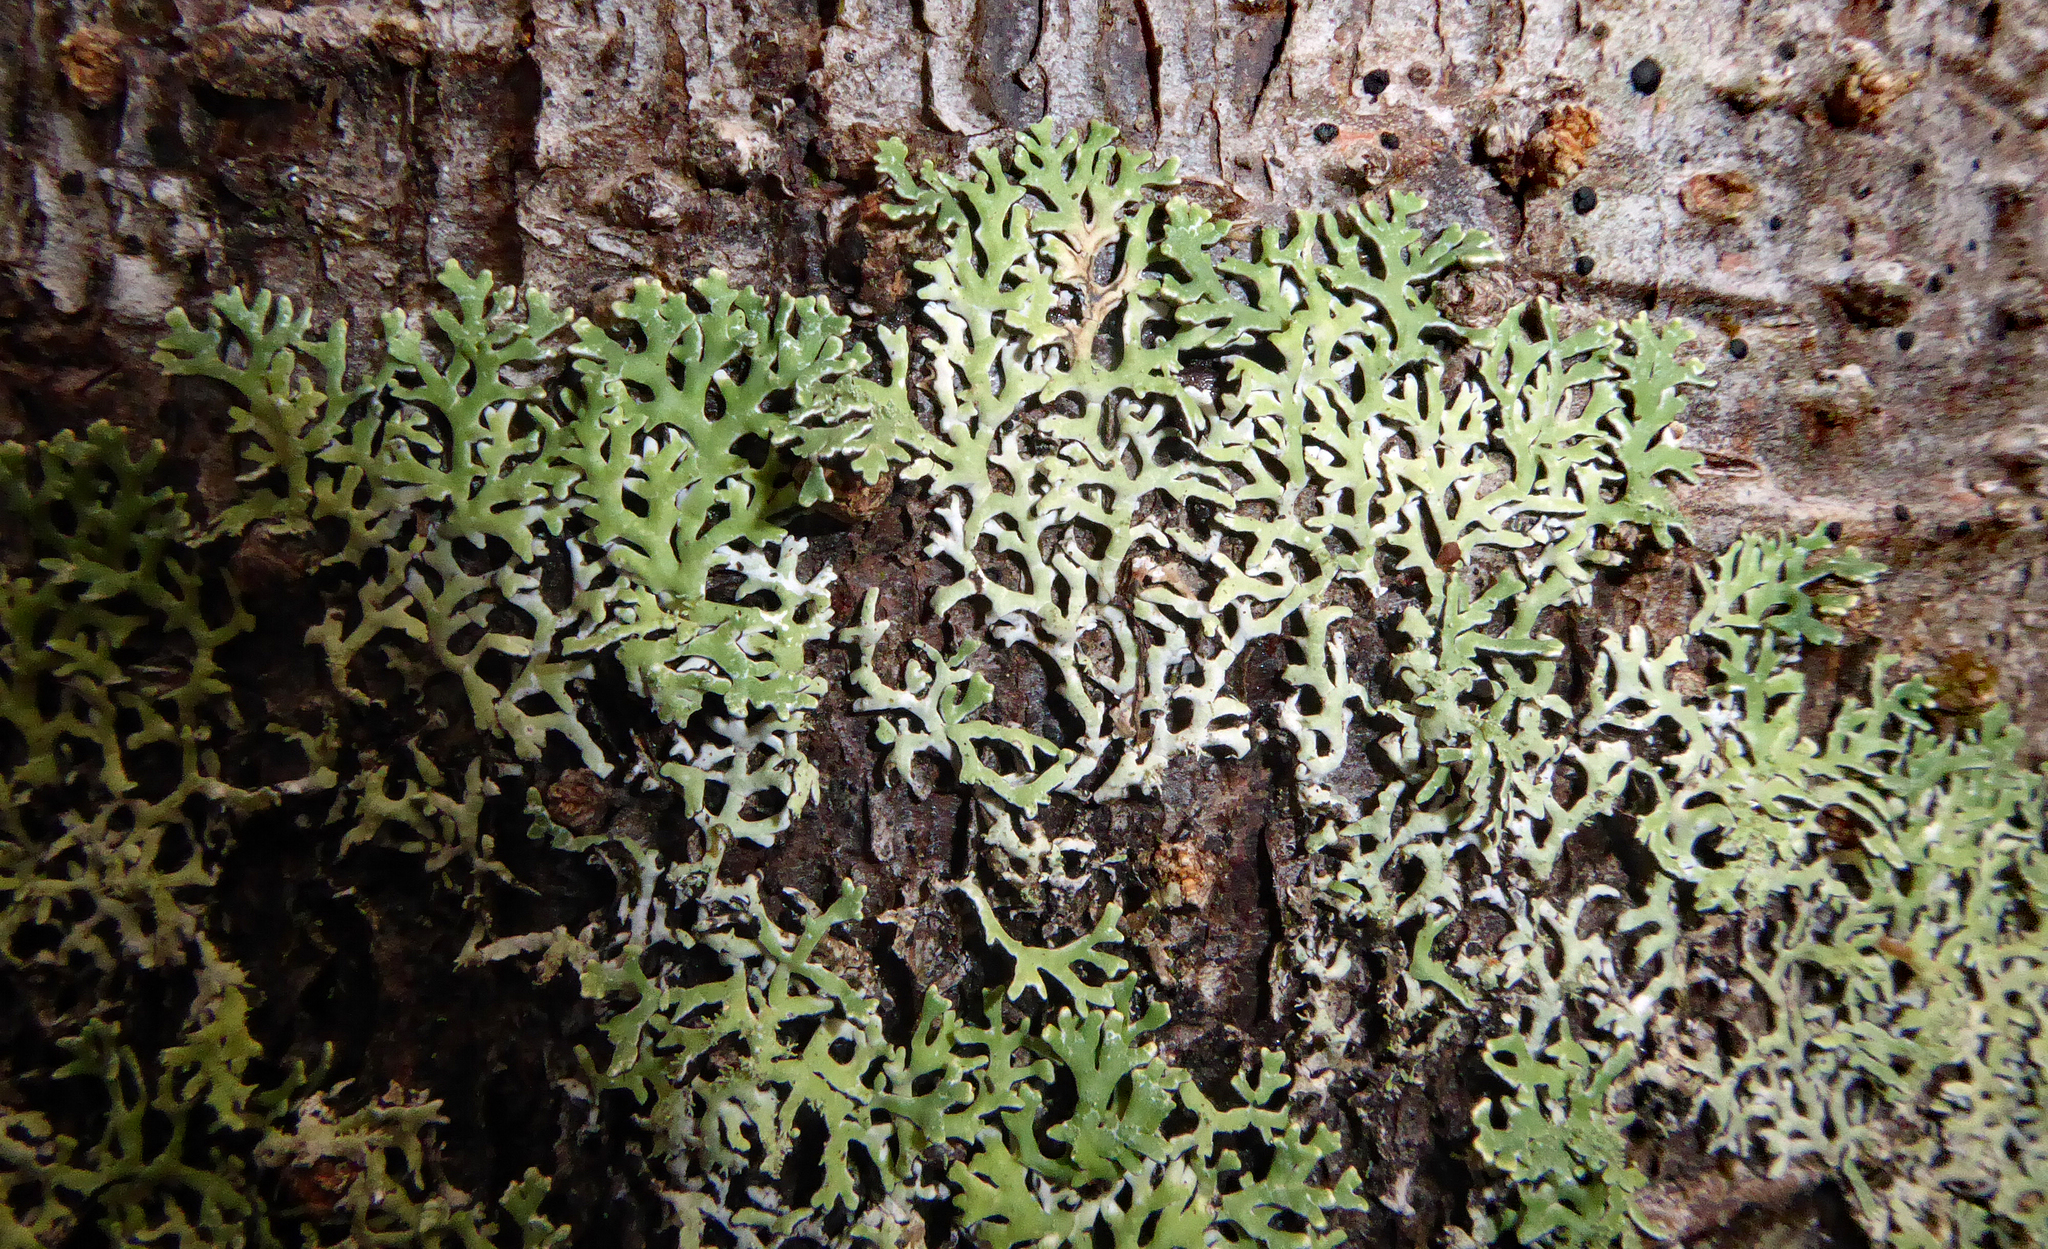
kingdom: Fungi
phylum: Ascomycota
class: Lecanoromycetes
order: Lecanorales
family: Parmeliaceae
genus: Anzia
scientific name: Anzia
